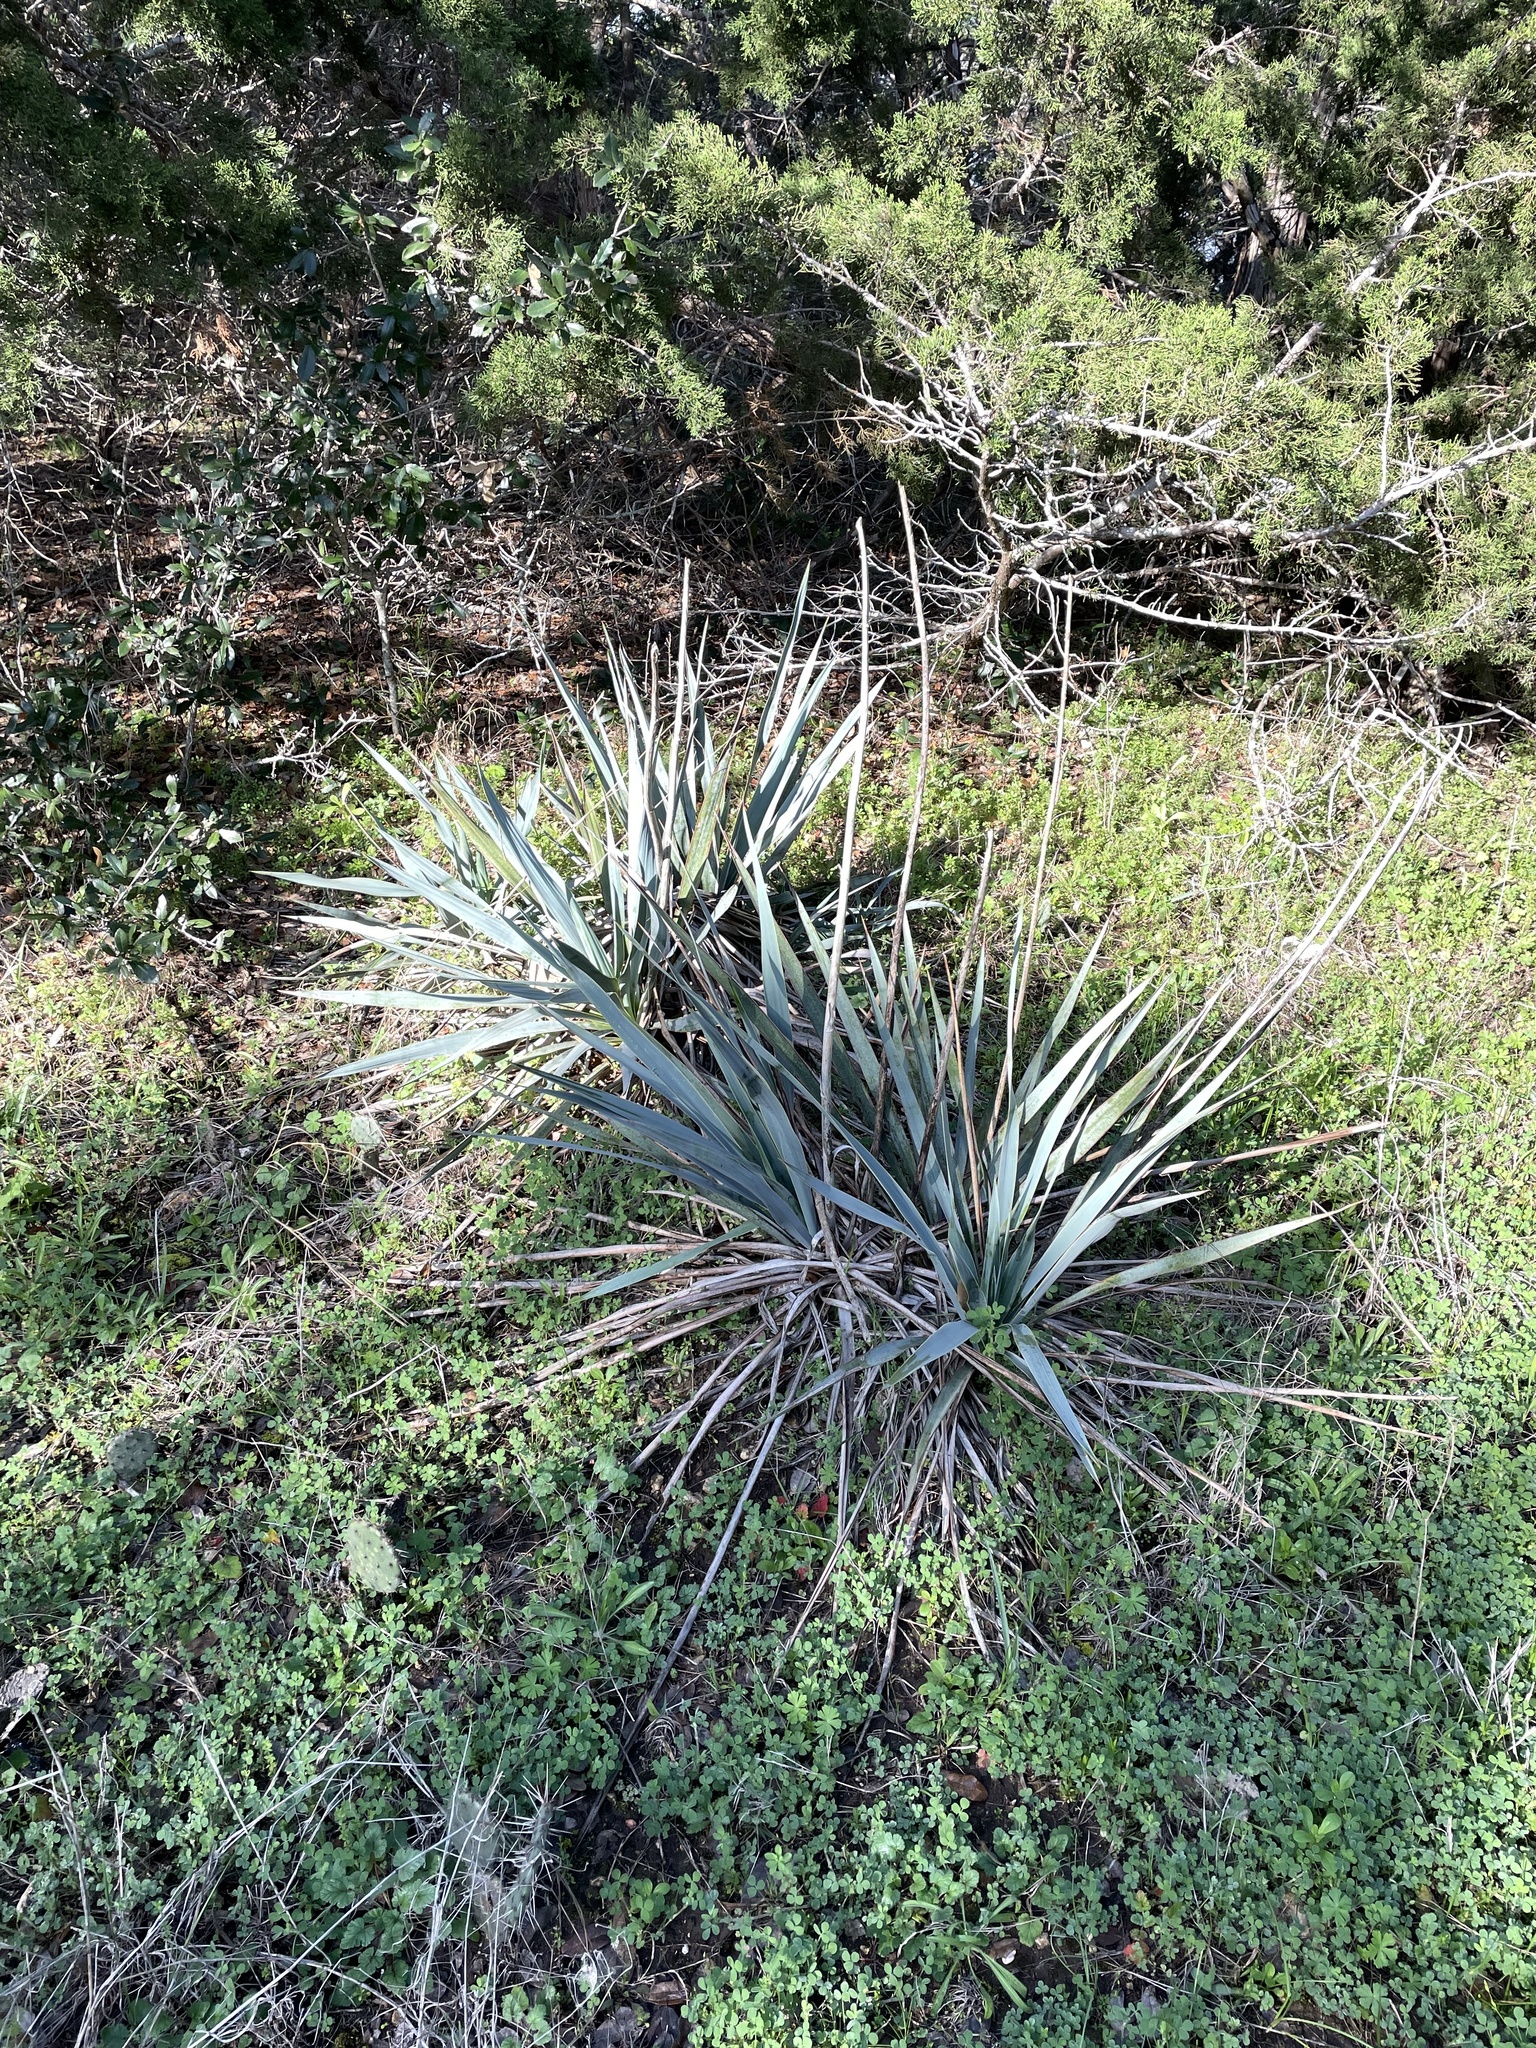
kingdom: Plantae
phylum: Tracheophyta
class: Liliopsida
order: Asparagales
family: Asparagaceae
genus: Yucca
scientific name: Yucca pallida
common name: Pale leaf yucca
